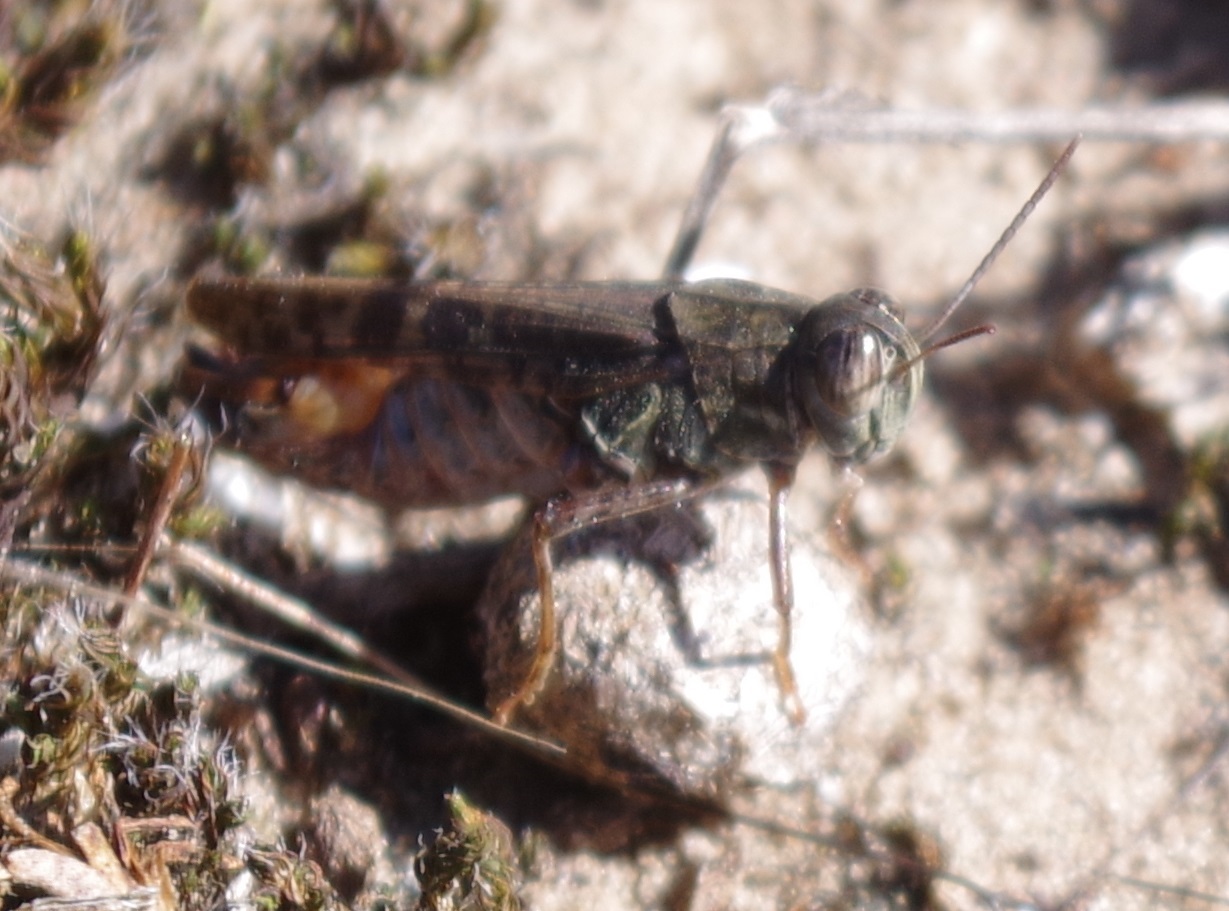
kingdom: Animalia
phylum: Arthropoda
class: Insecta
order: Orthoptera
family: Acrididae
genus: Oedipoda
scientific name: Oedipoda caerulescens
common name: Blue-winged grasshopper
